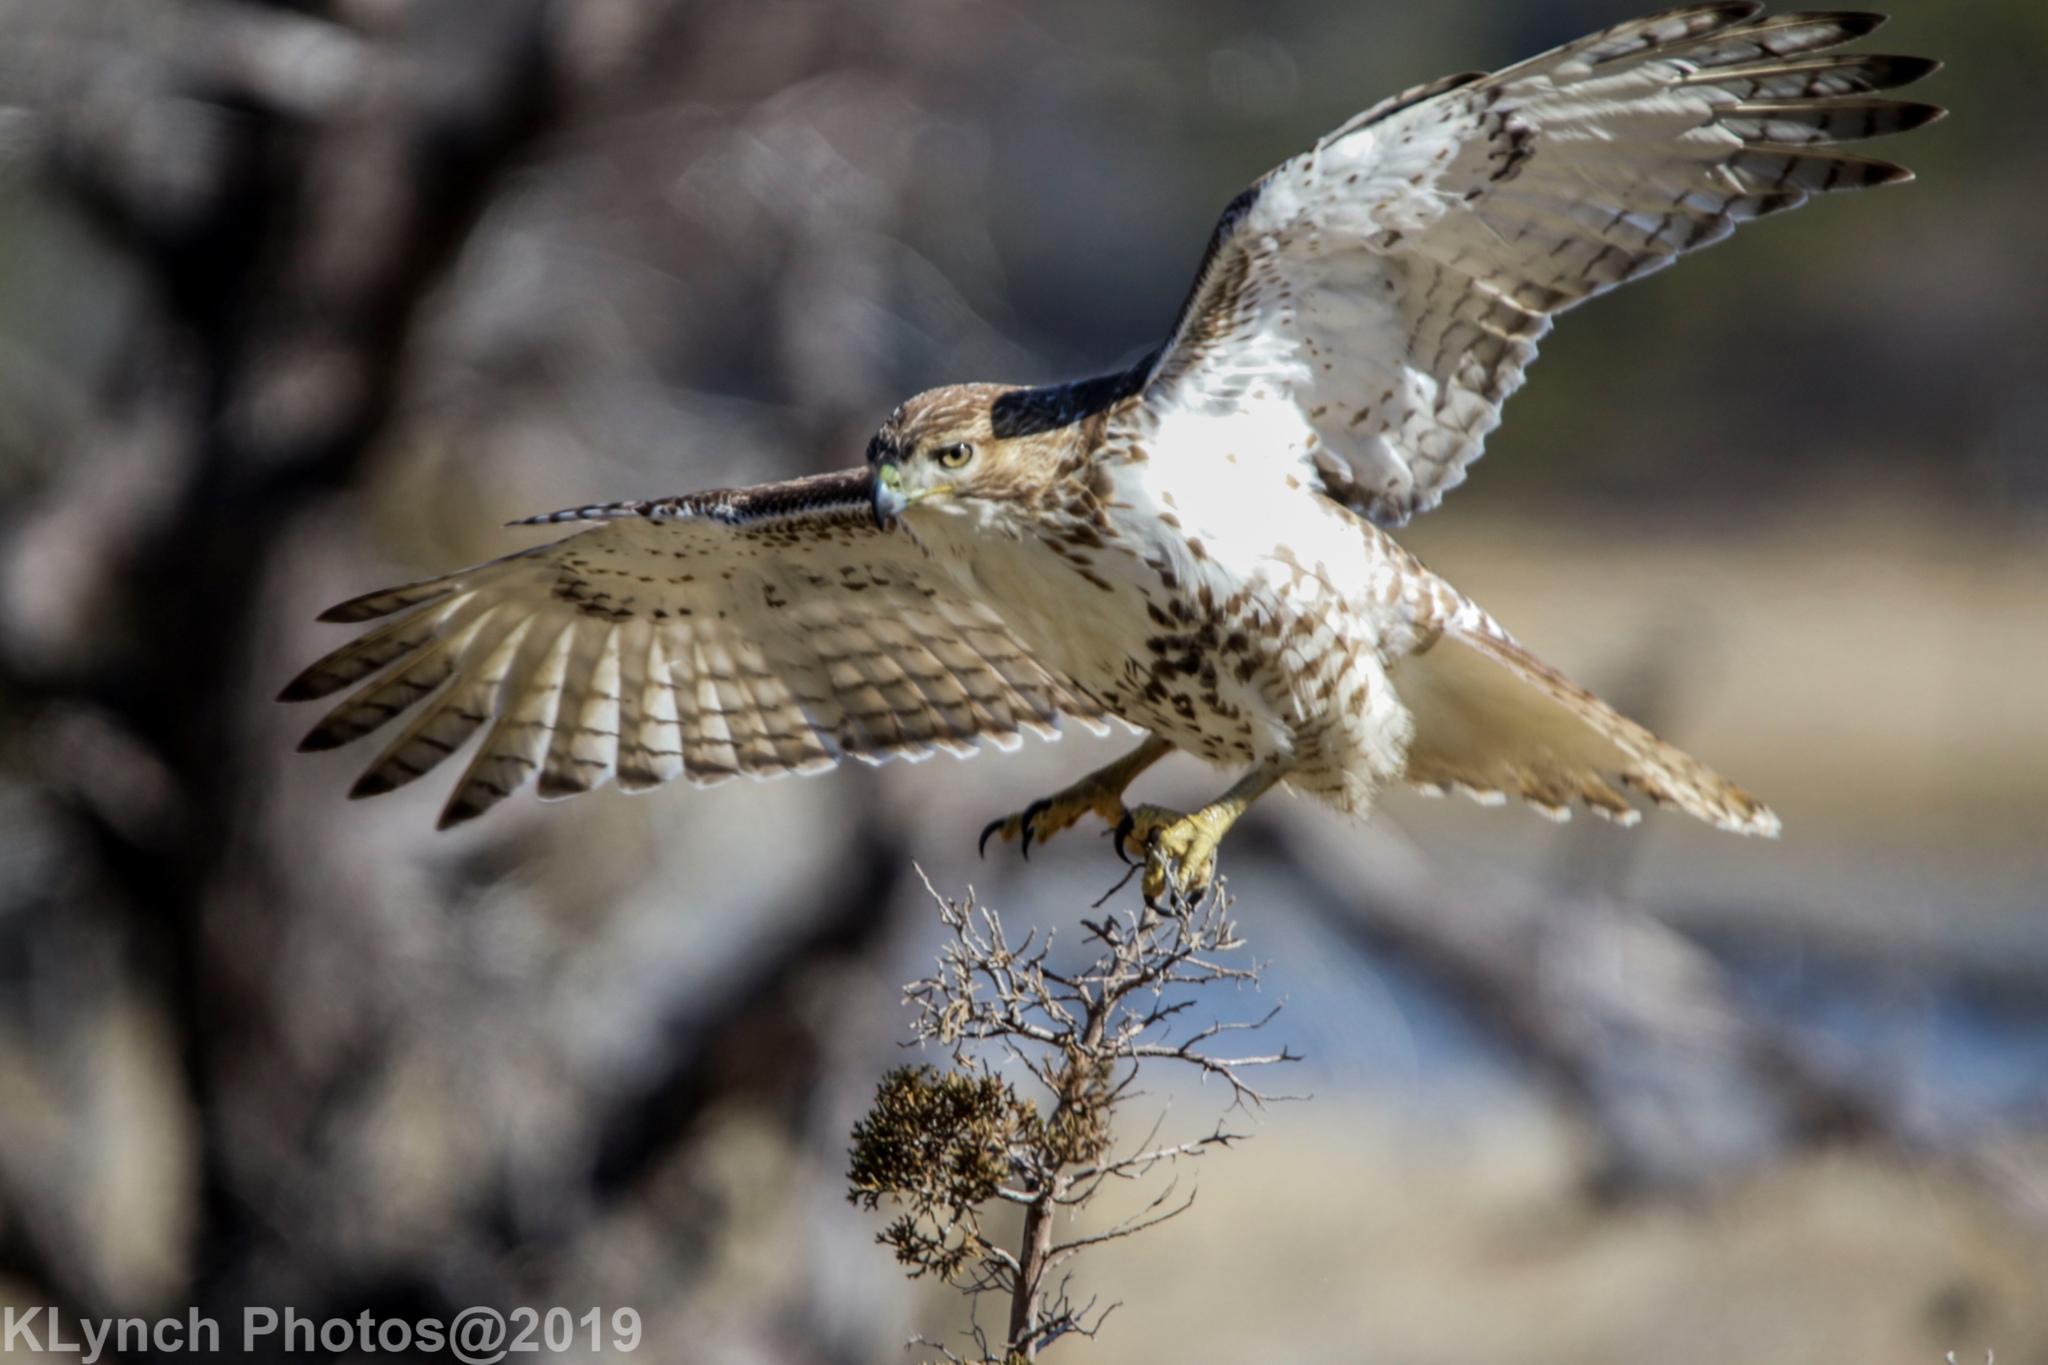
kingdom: Animalia
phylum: Chordata
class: Aves
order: Accipitriformes
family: Accipitridae
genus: Buteo
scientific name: Buteo jamaicensis
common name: Red-tailed hawk
